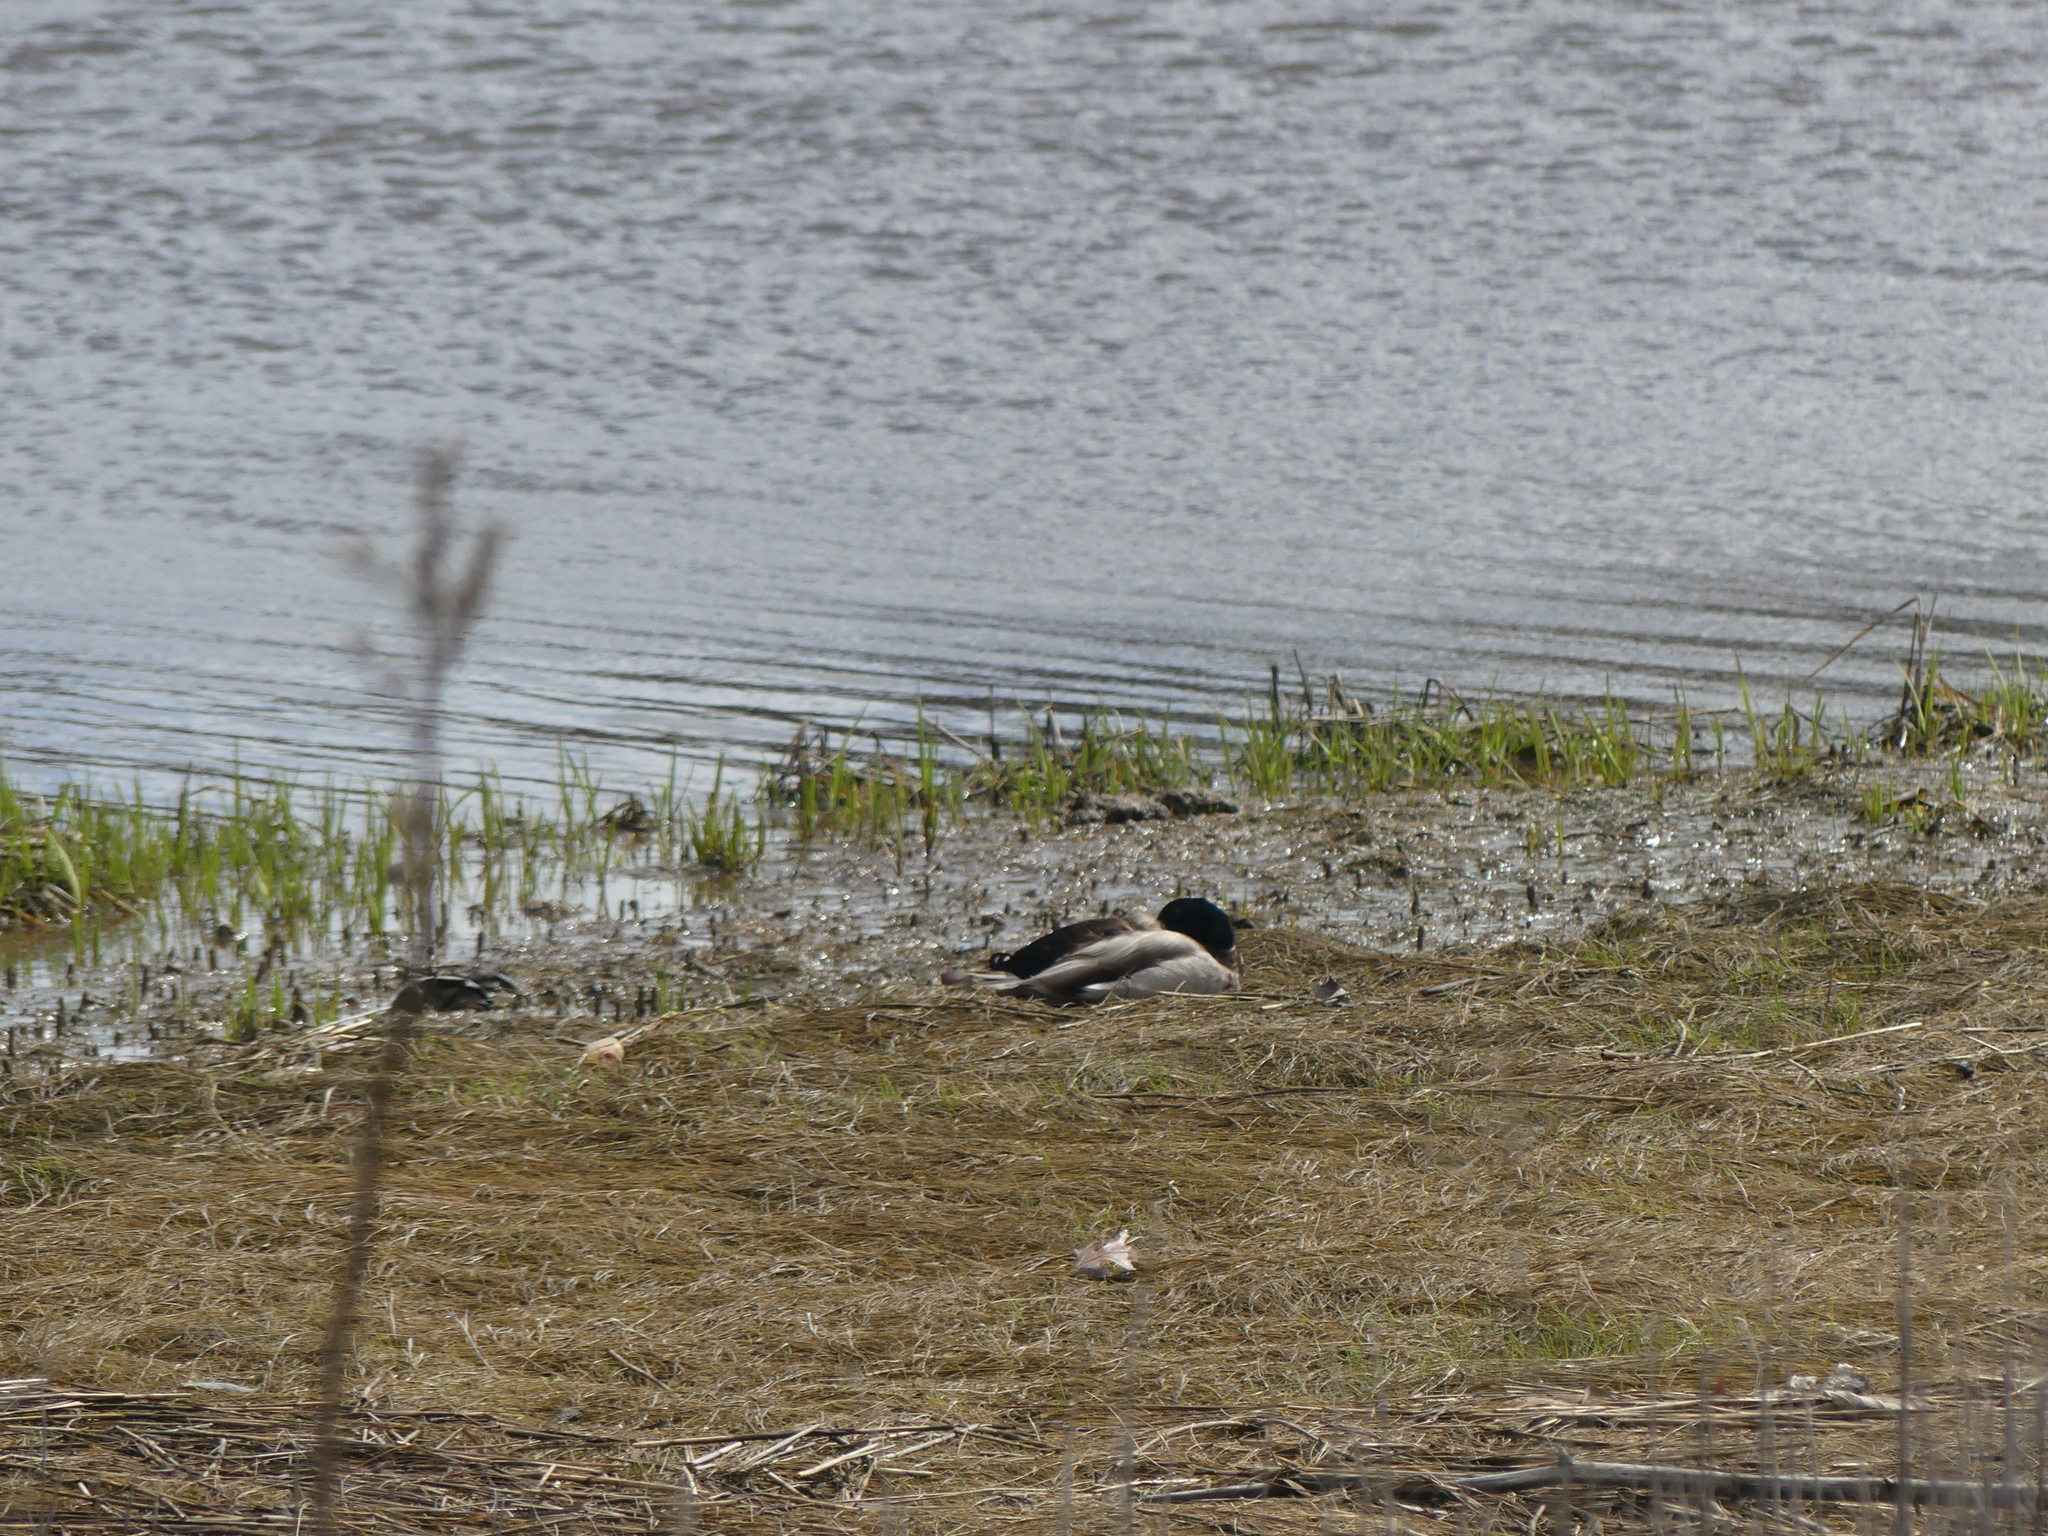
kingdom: Animalia
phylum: Chordata
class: Aves
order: Anseriformes
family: Anatidae
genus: Anas
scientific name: Anas platyrhynchos
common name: Mallard
